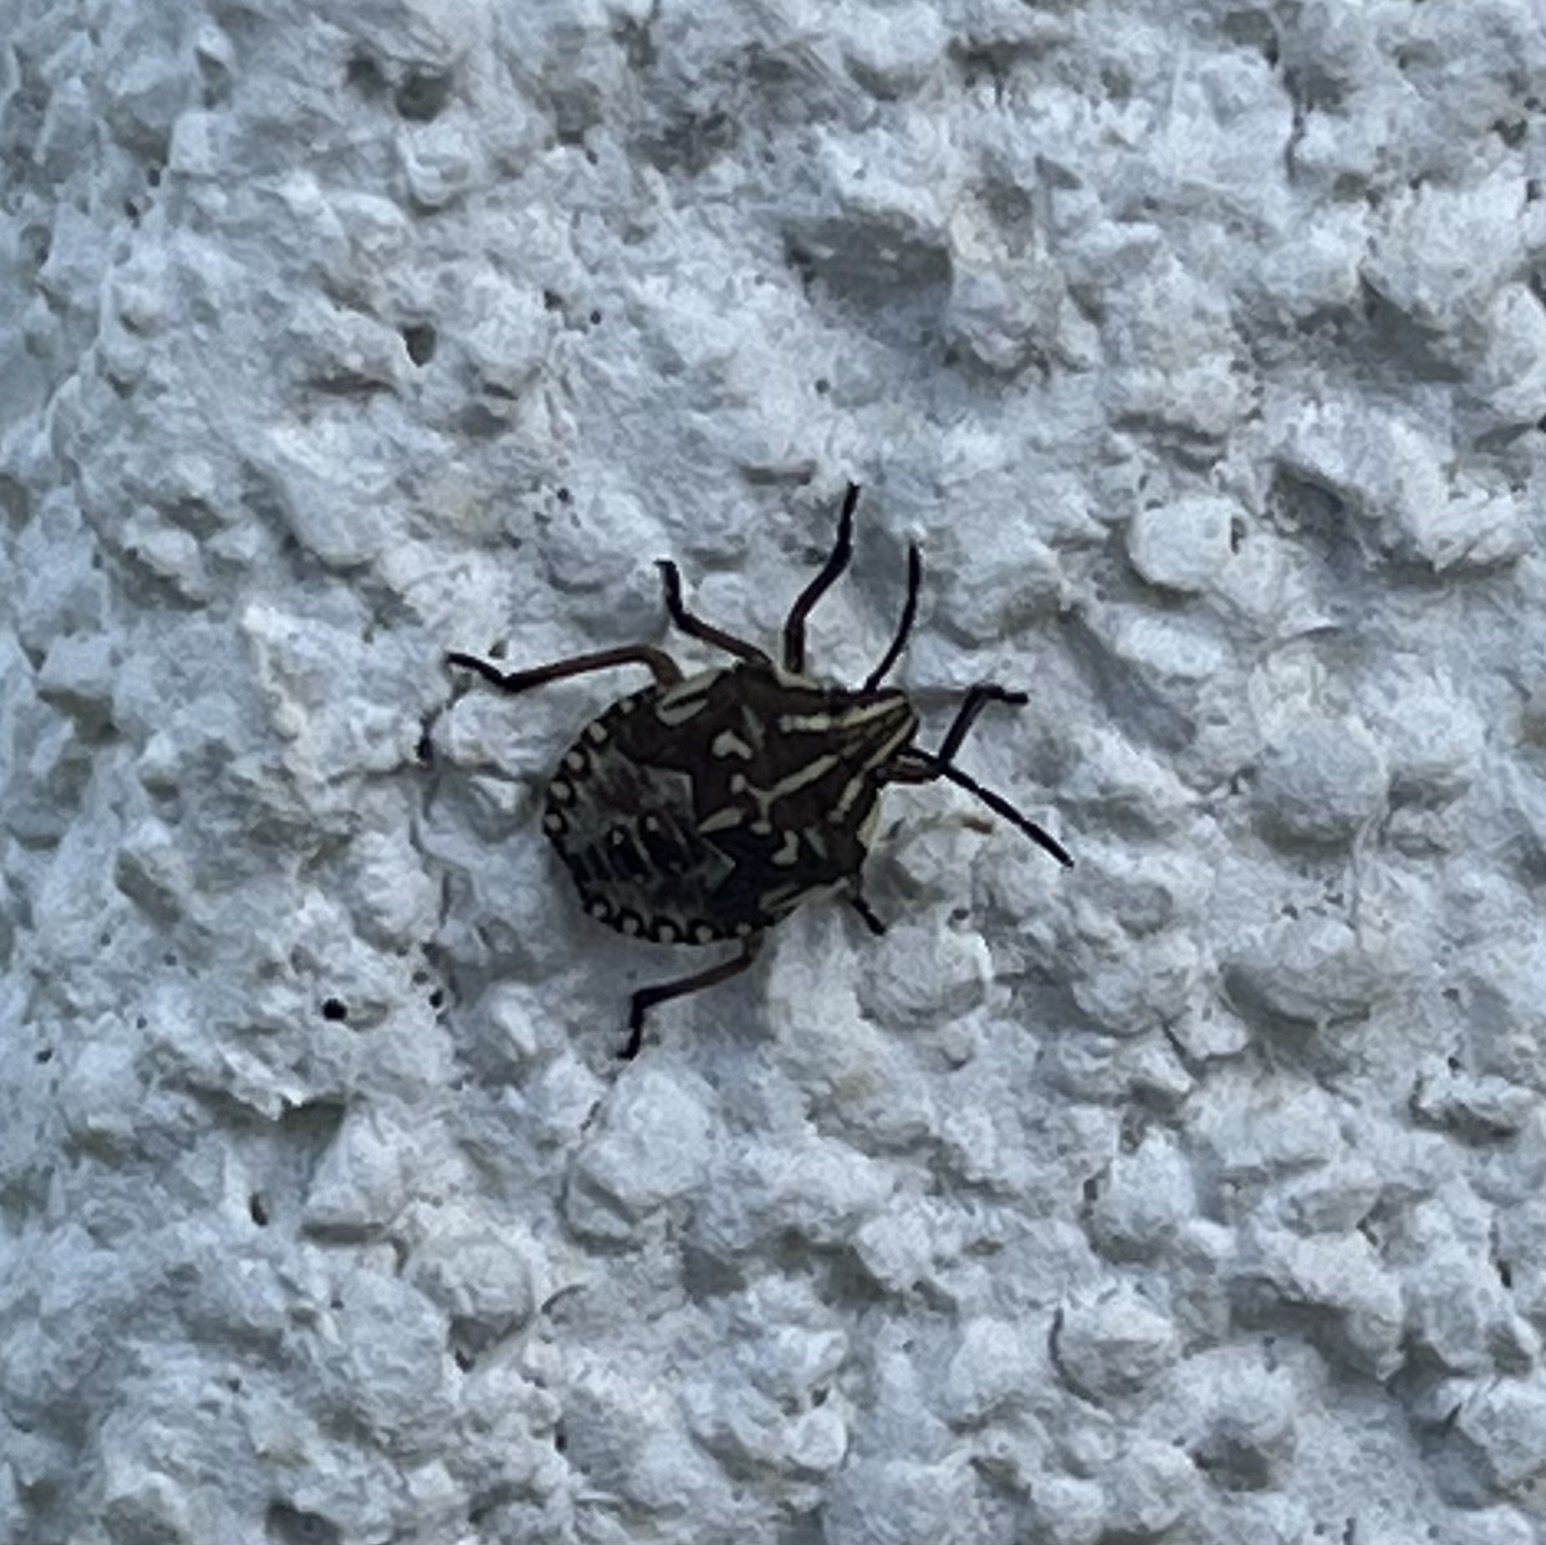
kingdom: Animalia
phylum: Arthropoda
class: Insecta
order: Hemiptera
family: Pentatomidae
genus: Carpocoris
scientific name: Carpocoris purpureipennis
